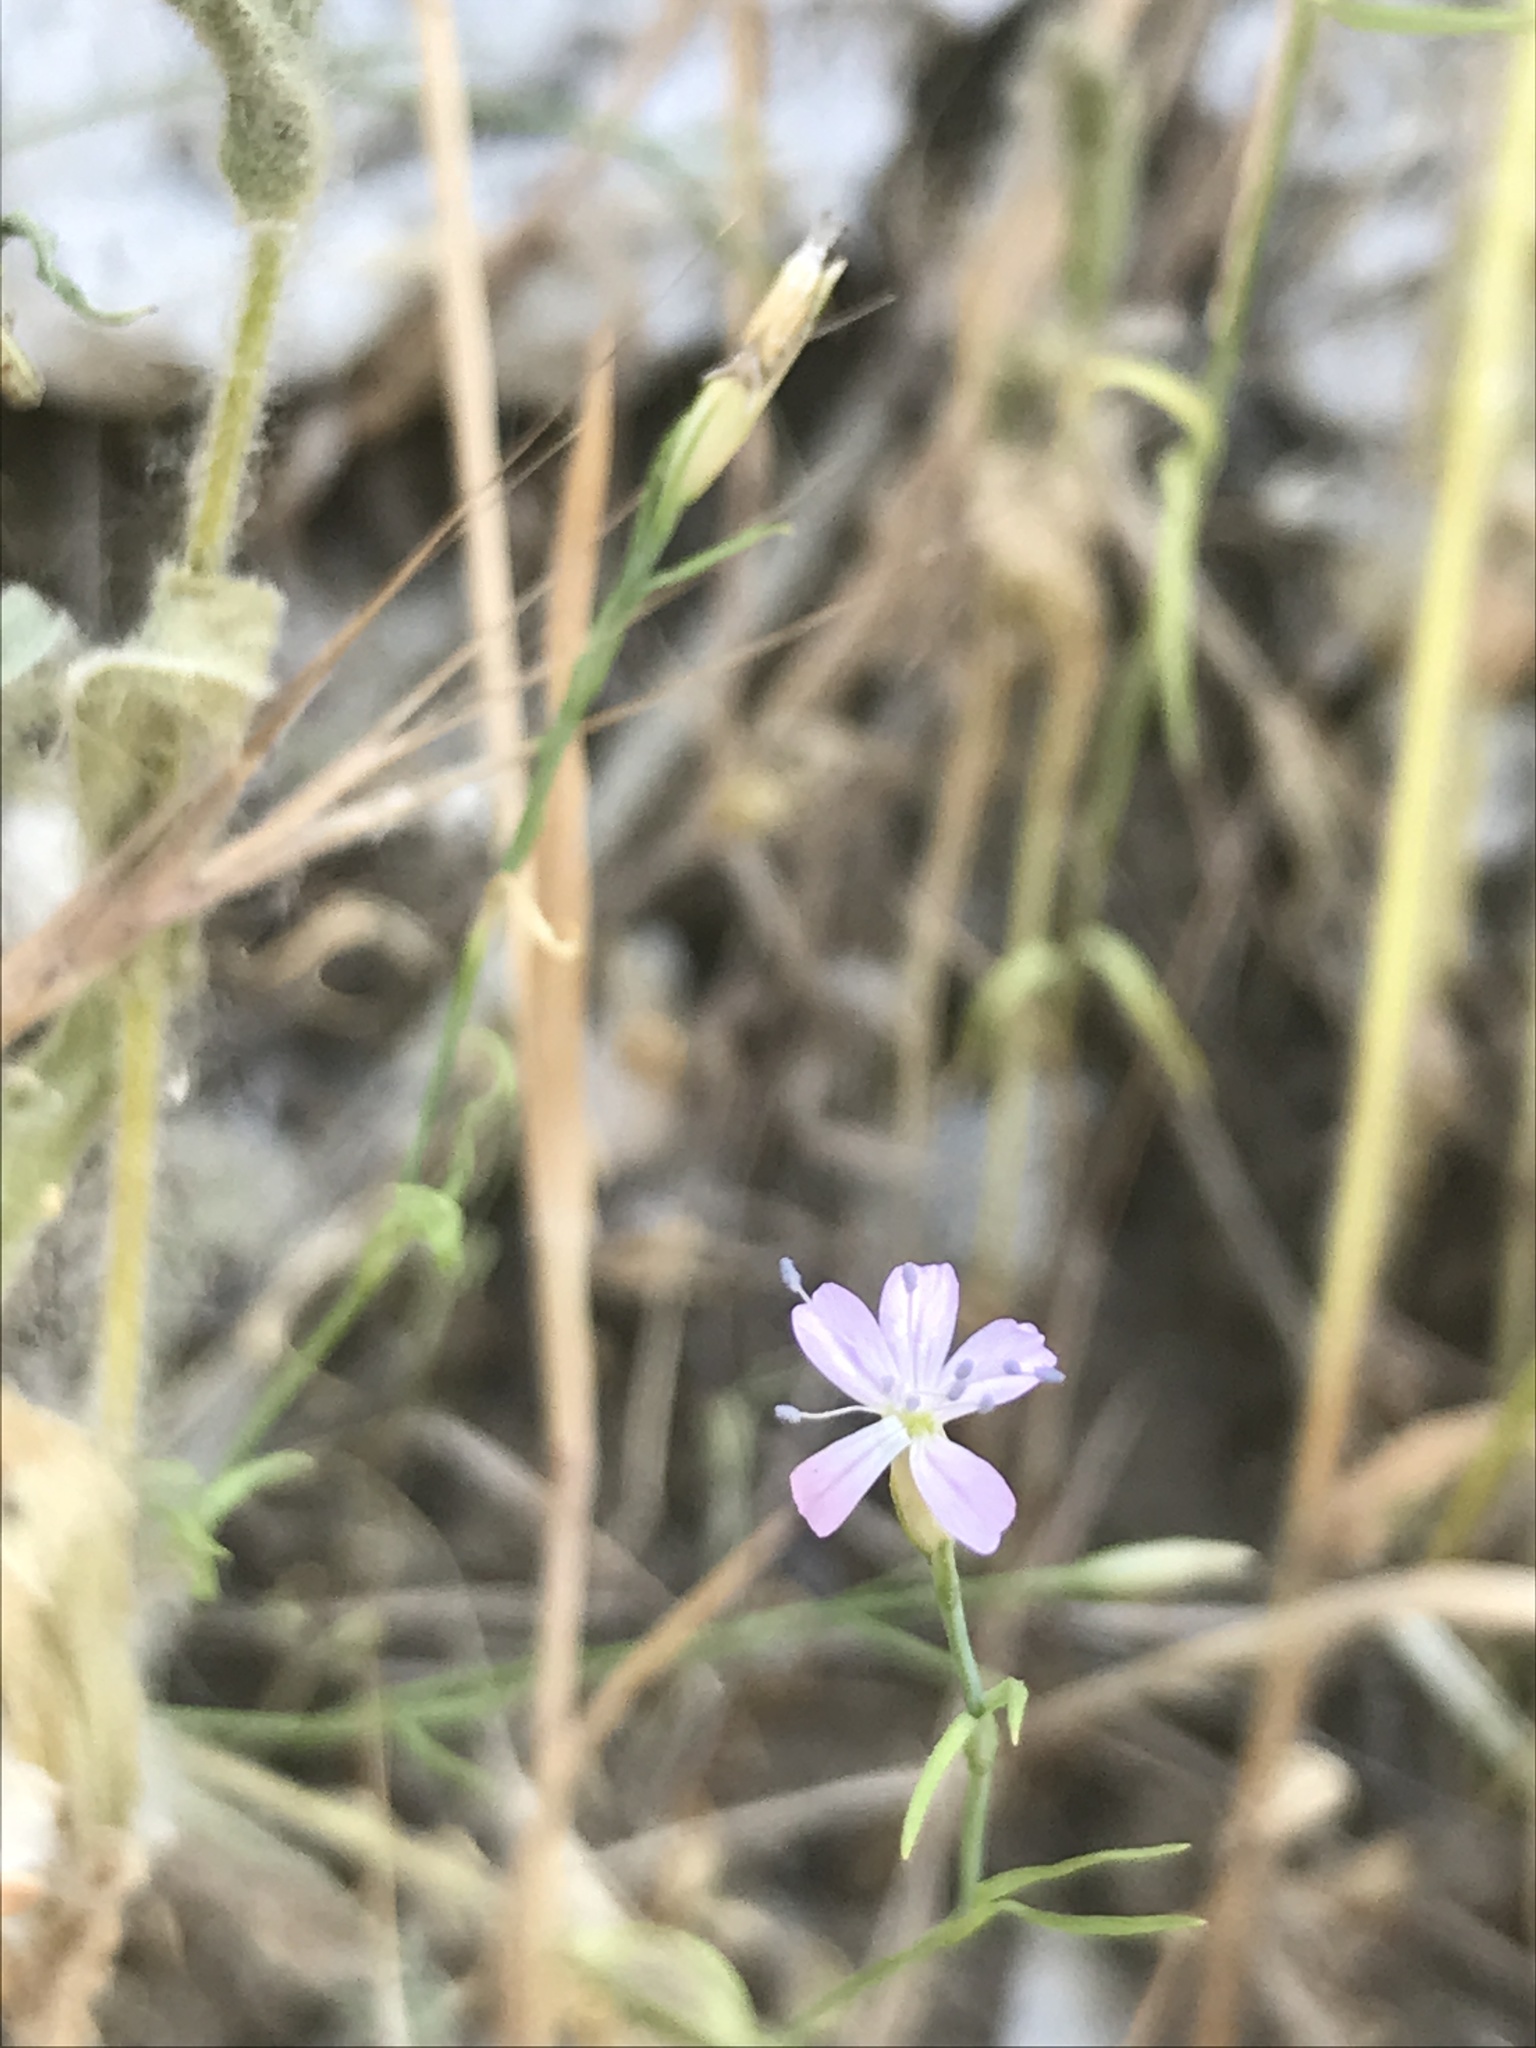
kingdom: Plantae
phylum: Tracheophyta
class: Magnoliopsida
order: Caryophyllales
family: Caryophyllaceae
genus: Petrorhagia
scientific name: Petrorhagia saxifraga
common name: Tunicflower
